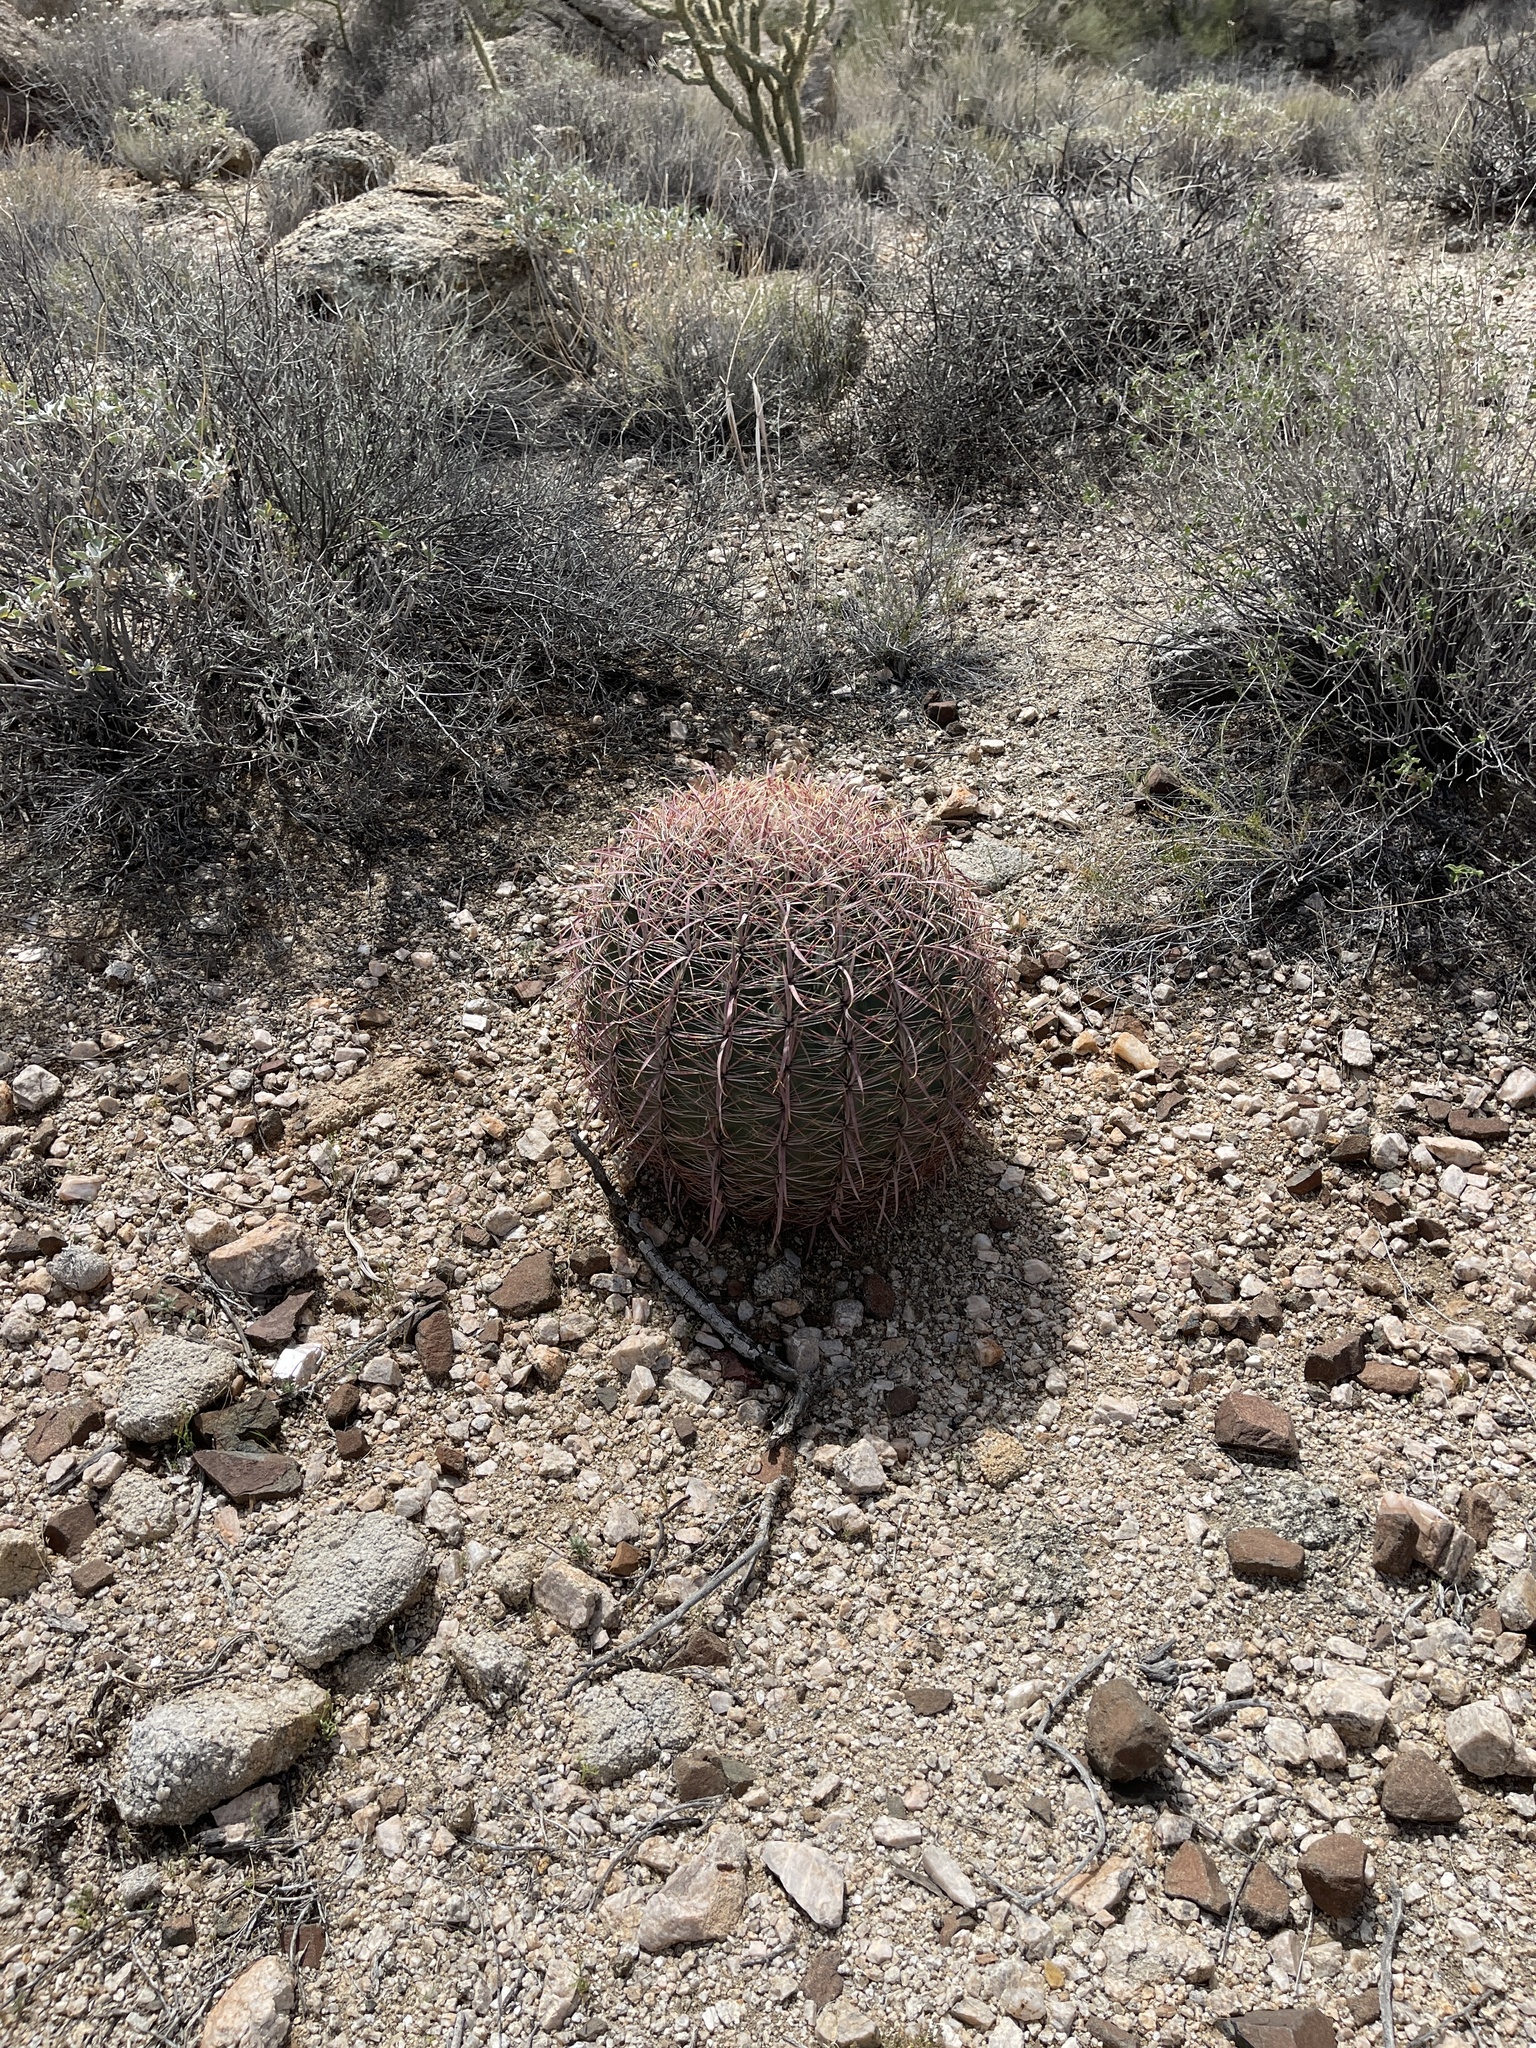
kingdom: Plantae
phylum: Tracheophyta
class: Magnoliopsida
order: Caryophyllales
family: Cactaceae
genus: Ferocactus
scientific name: Ferocactus cylindraceus
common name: California barrel cactus
